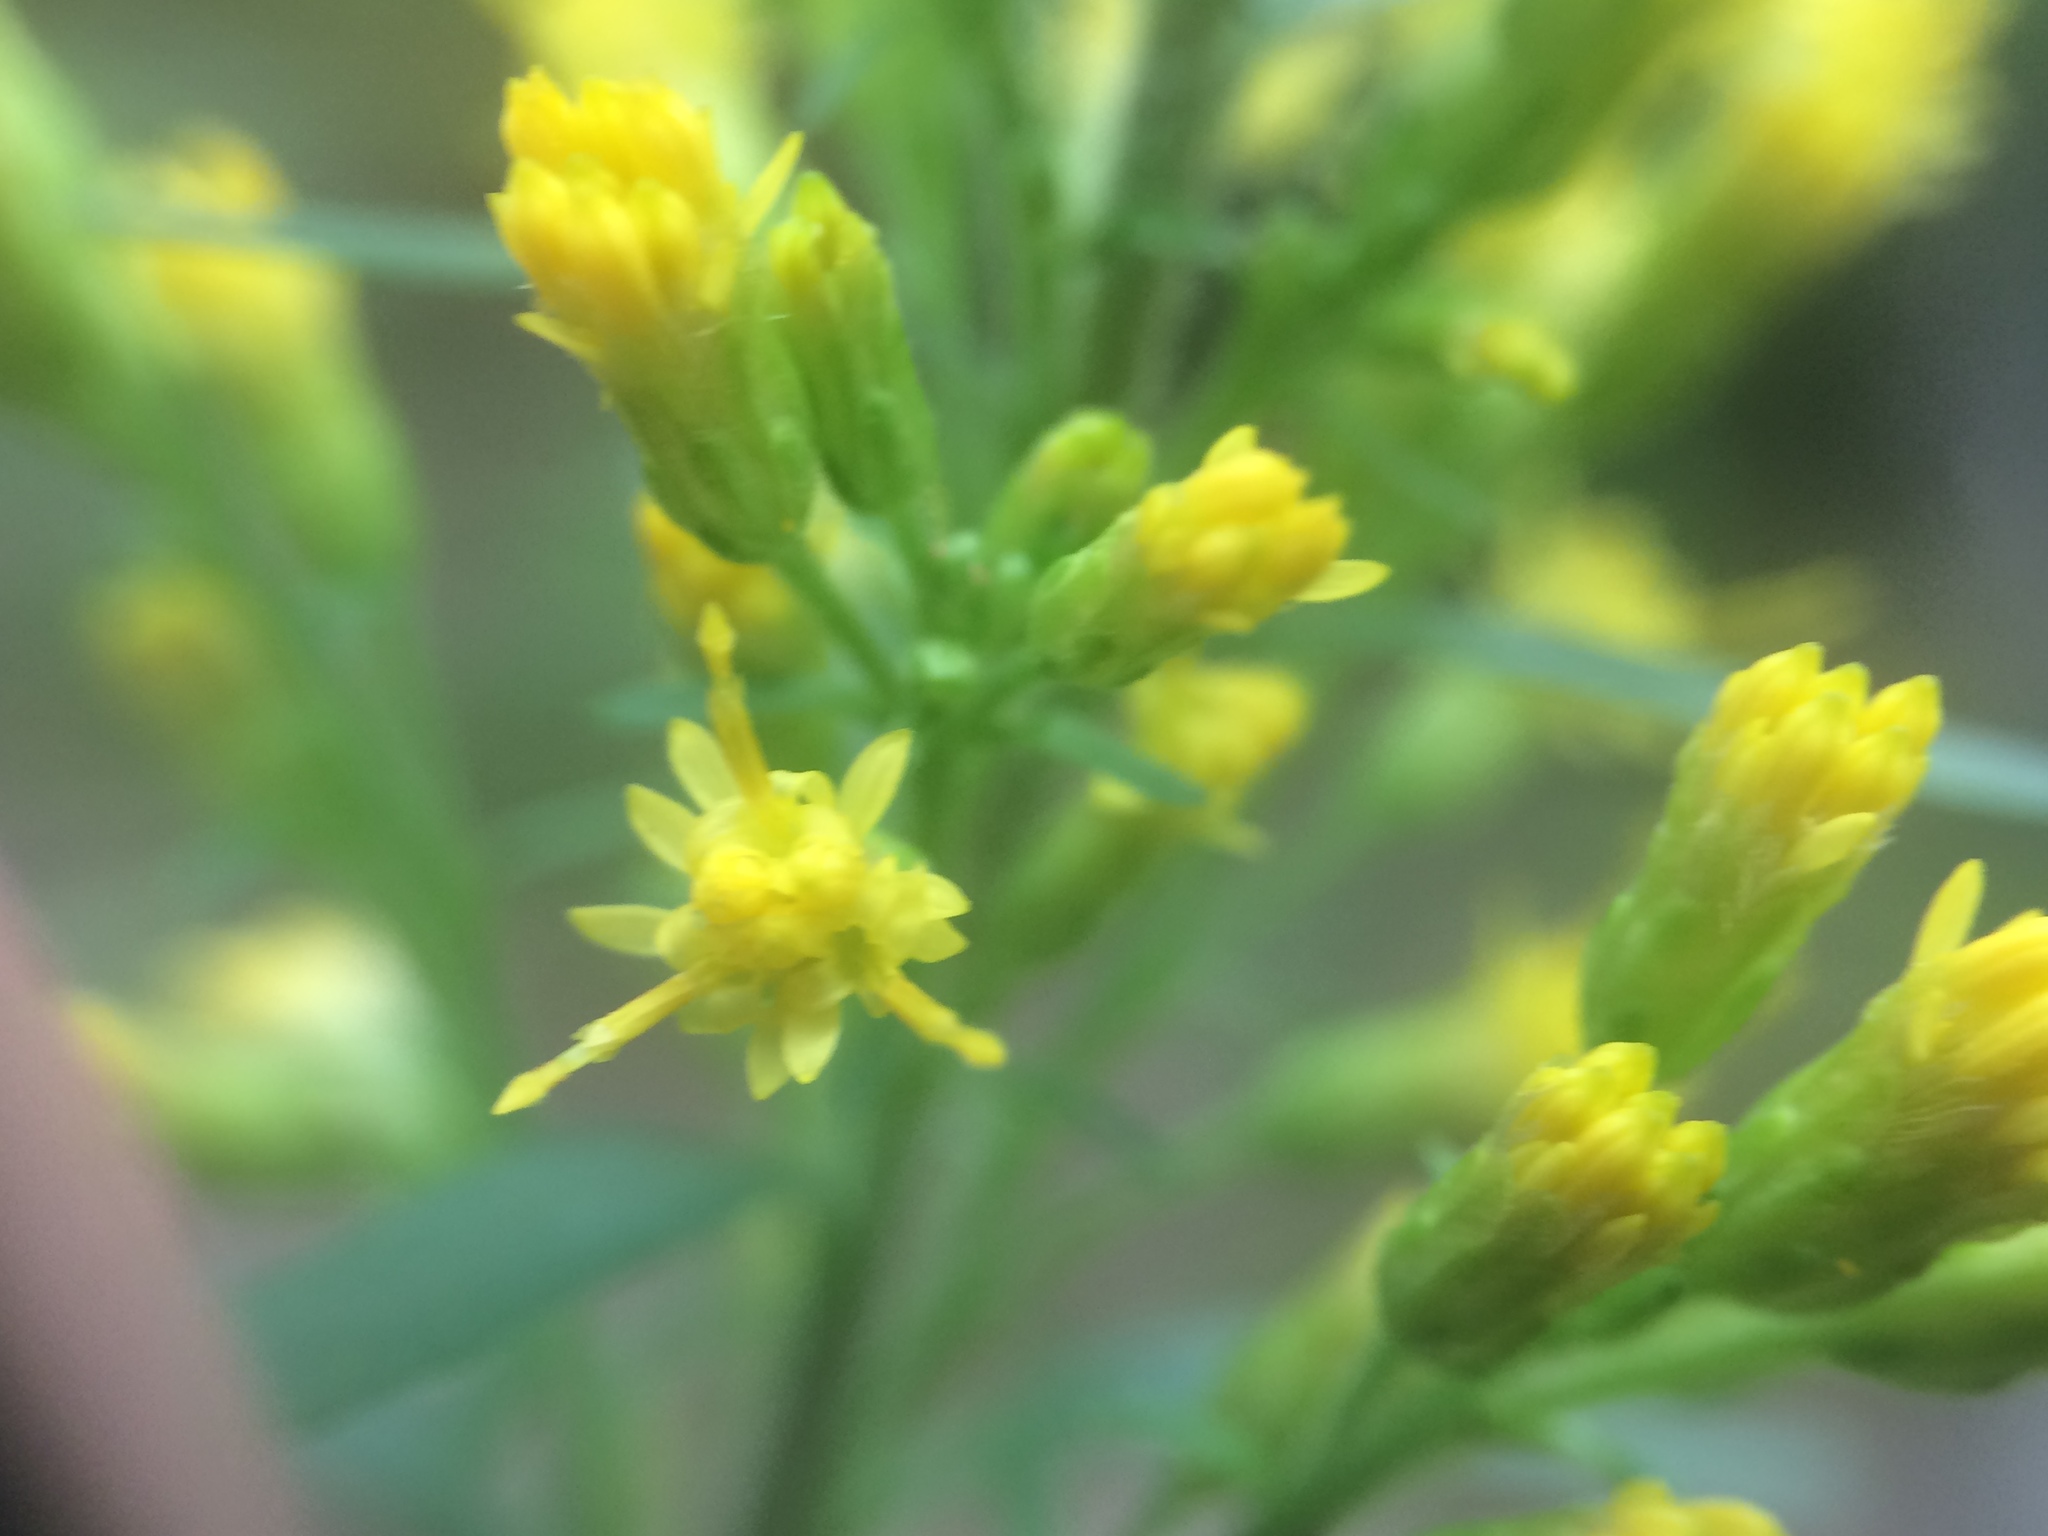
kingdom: Plantae
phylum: Tracheophyta
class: Magnoliopsida
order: Asterales
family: Asteraceae
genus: Solidago
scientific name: Solidago hispida
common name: Hairy goldenrod
